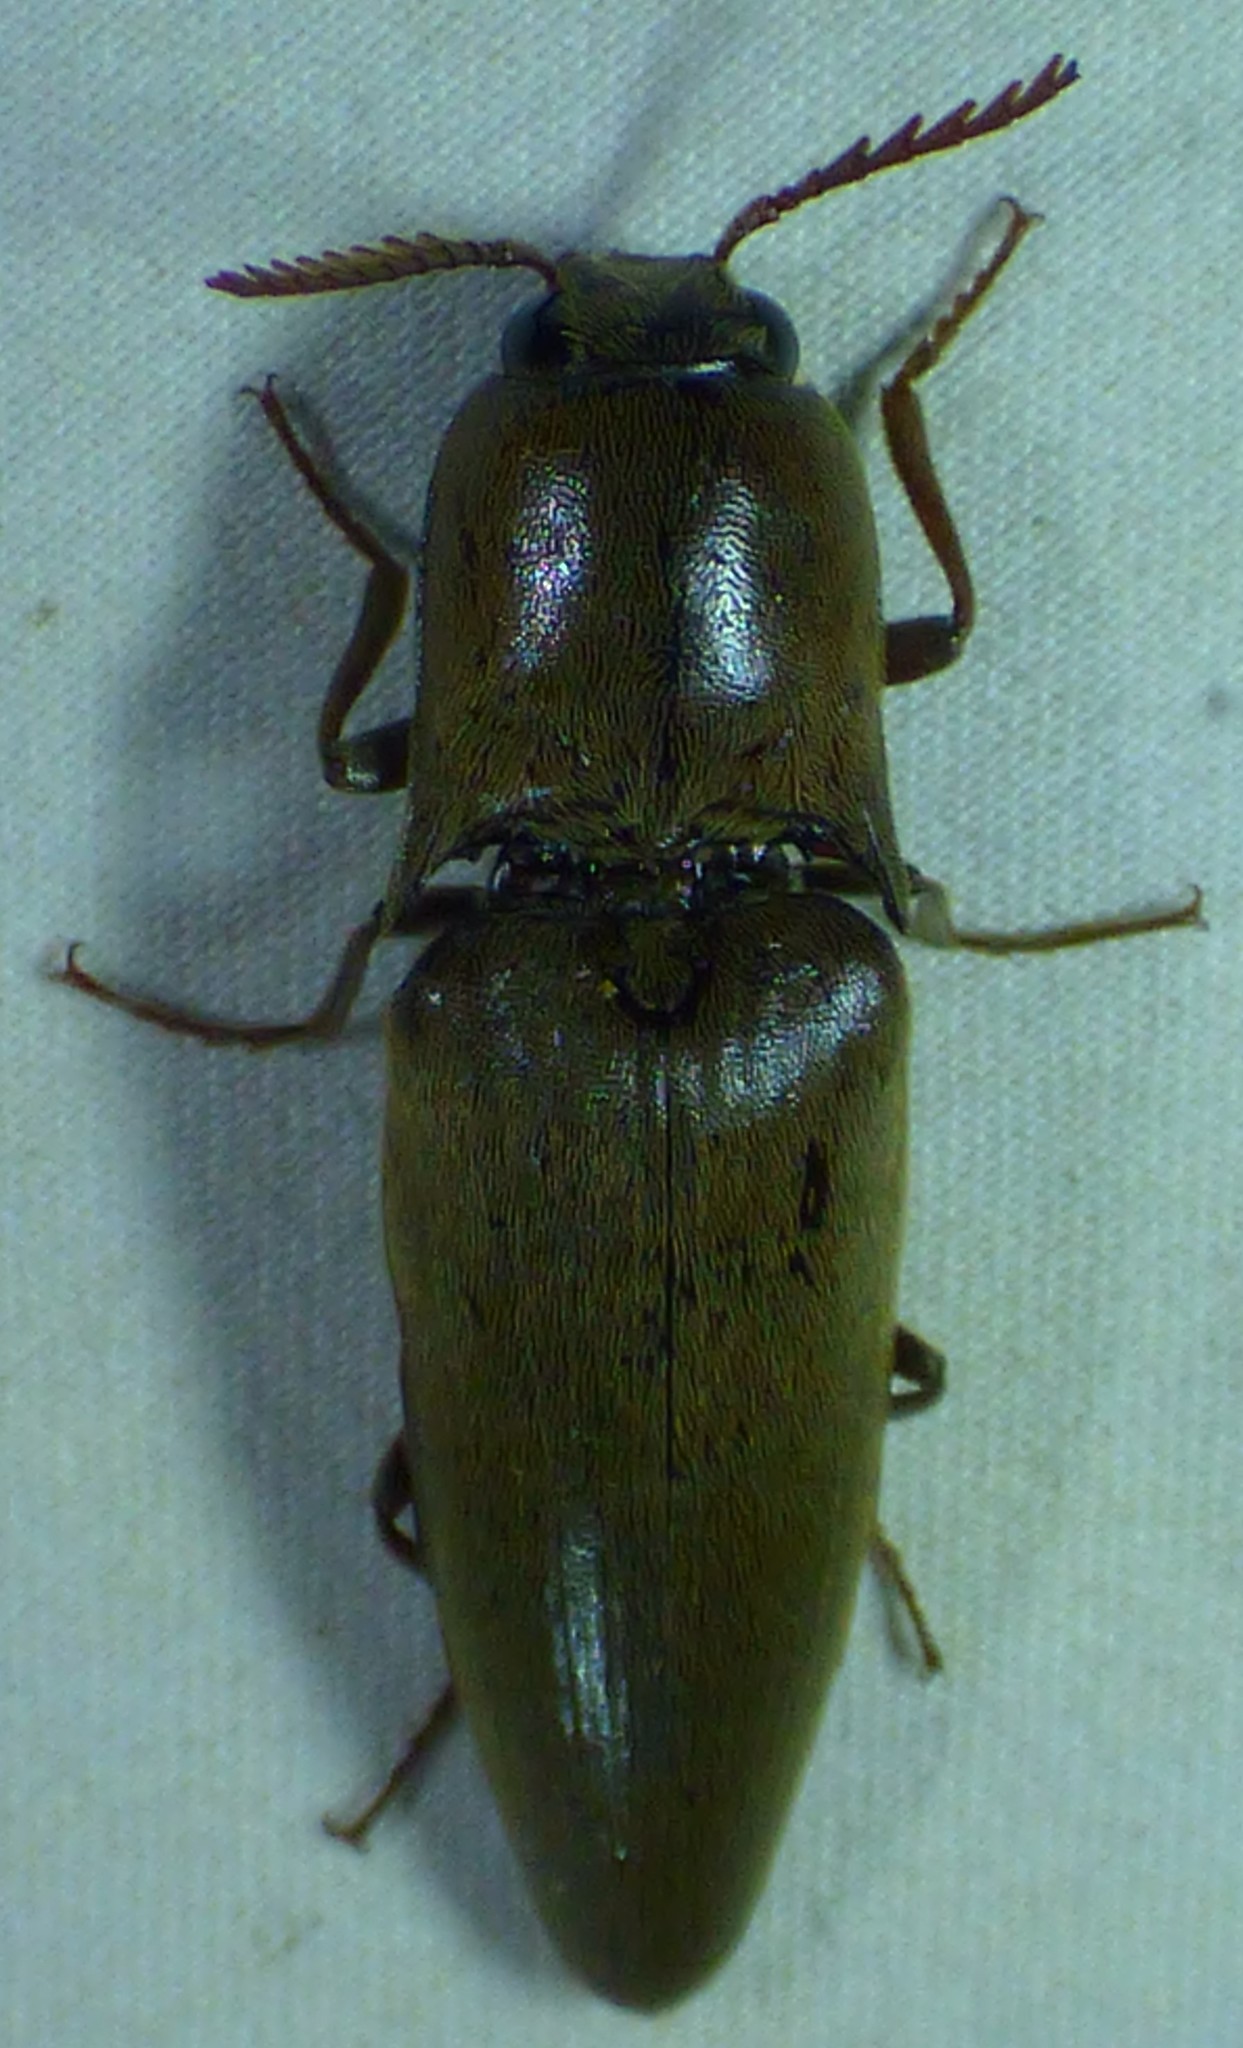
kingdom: Animalia
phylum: Arthropoda
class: Insecta
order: Coleoptera
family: Elateridae
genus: Orthostethus
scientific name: Orthostethus infuscatus
